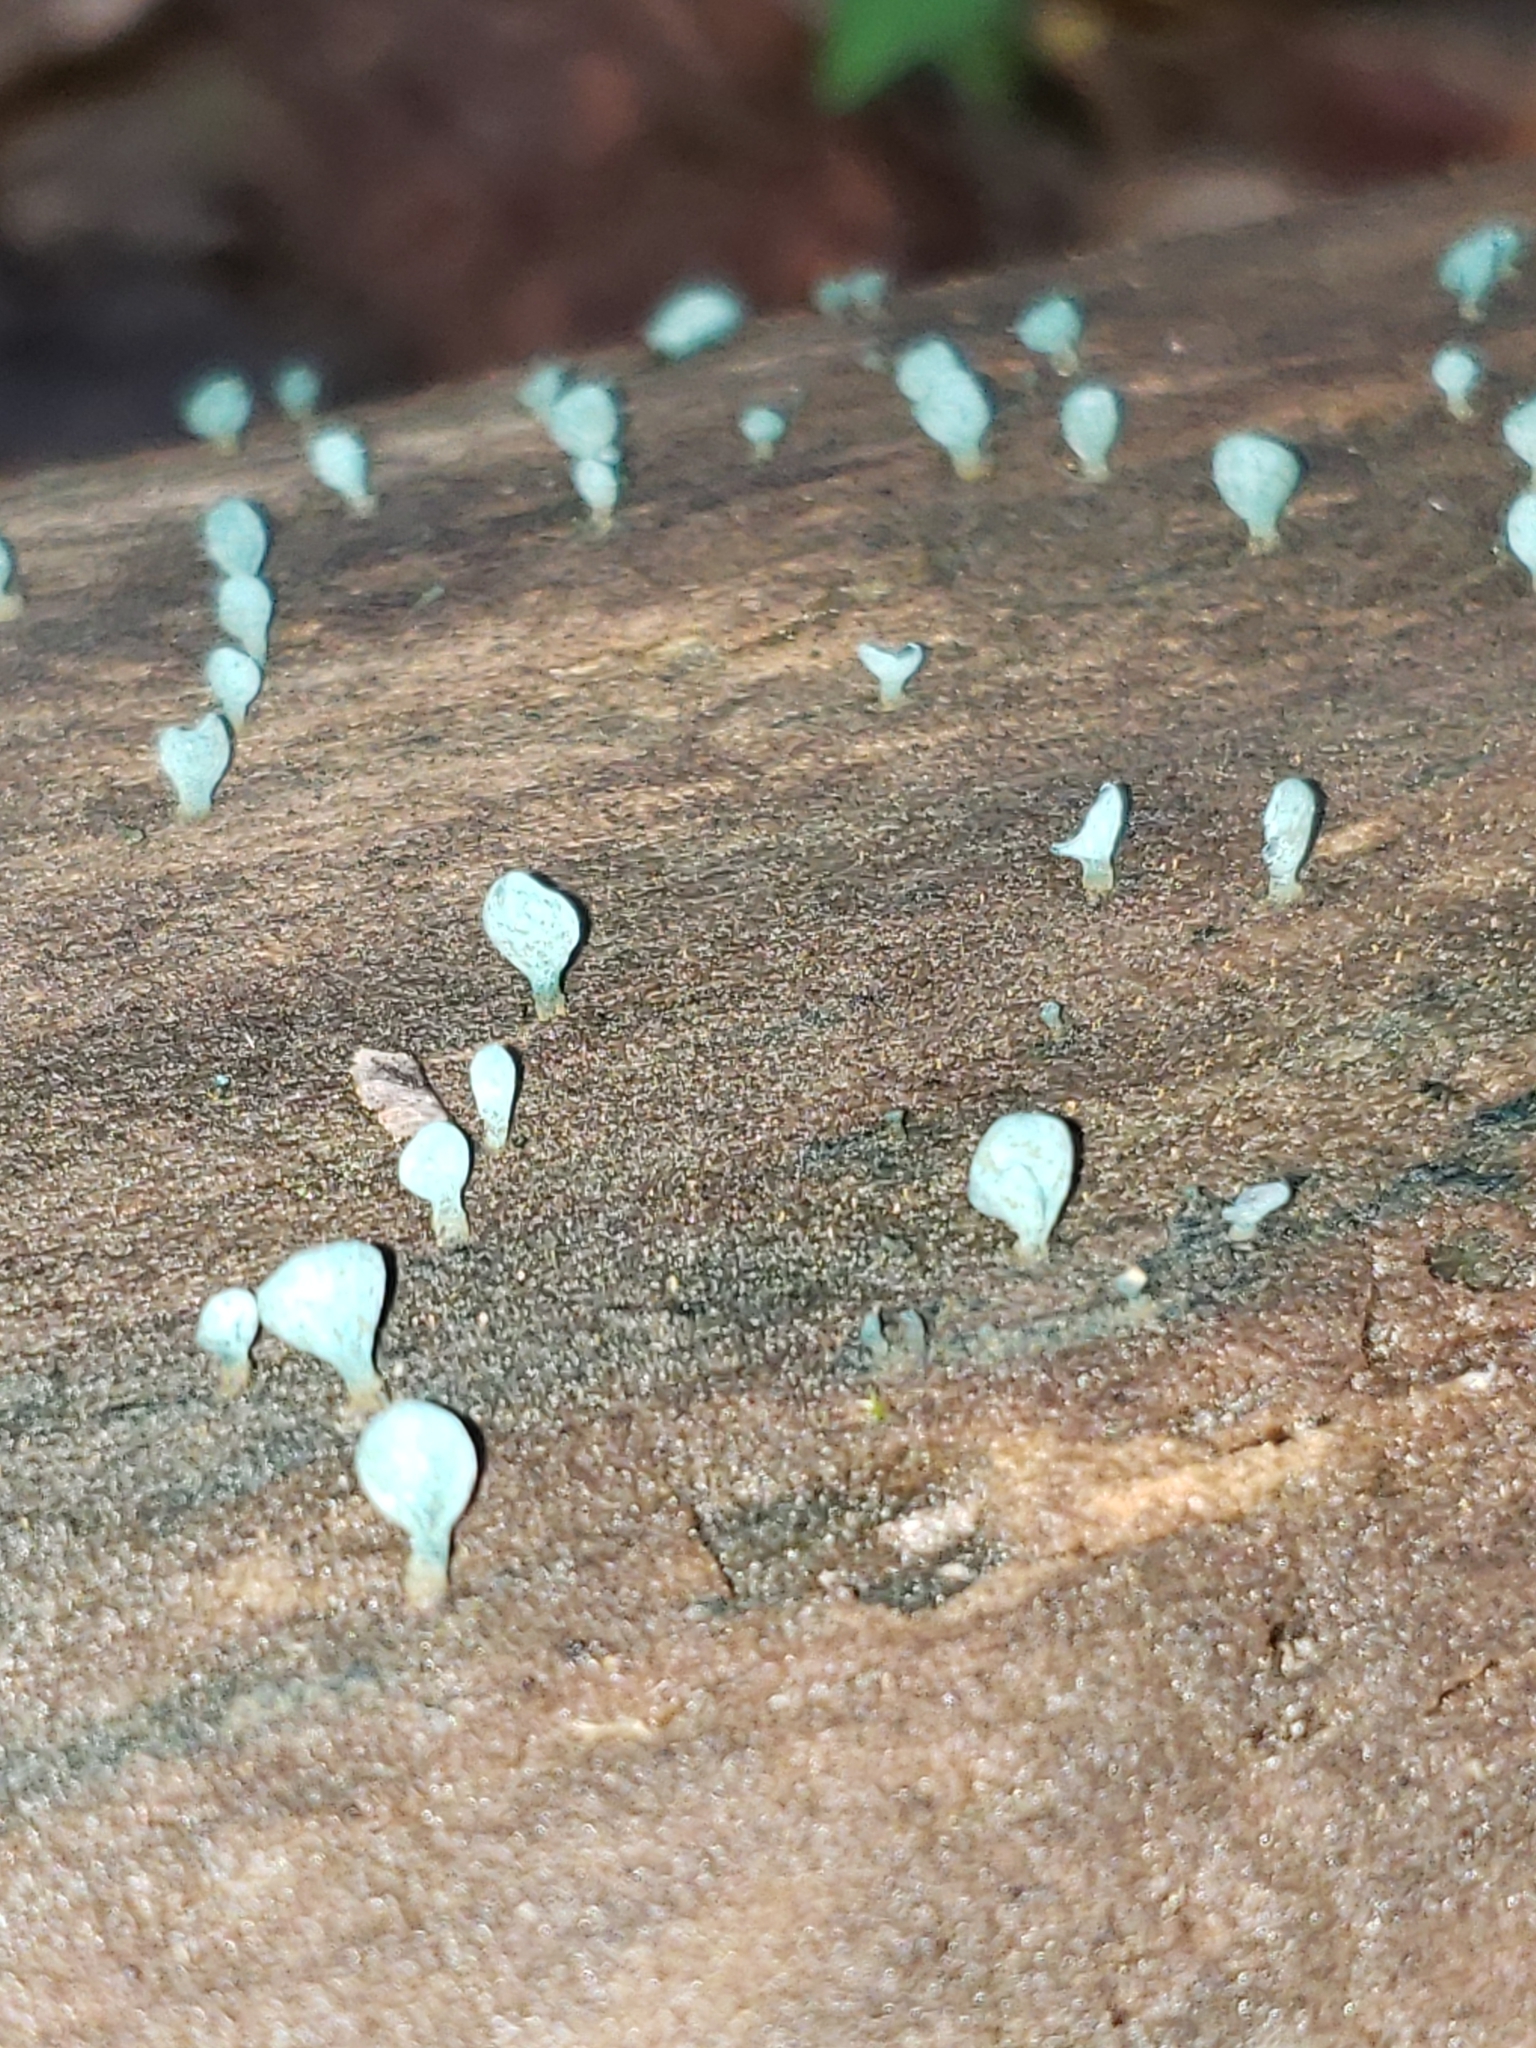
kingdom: Fungi
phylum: Ascomycota
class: Leotiomycetes
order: Helotiales
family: Chlorociboriaceae
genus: Chlorociboria
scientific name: Chlorociboria aeruginascens
